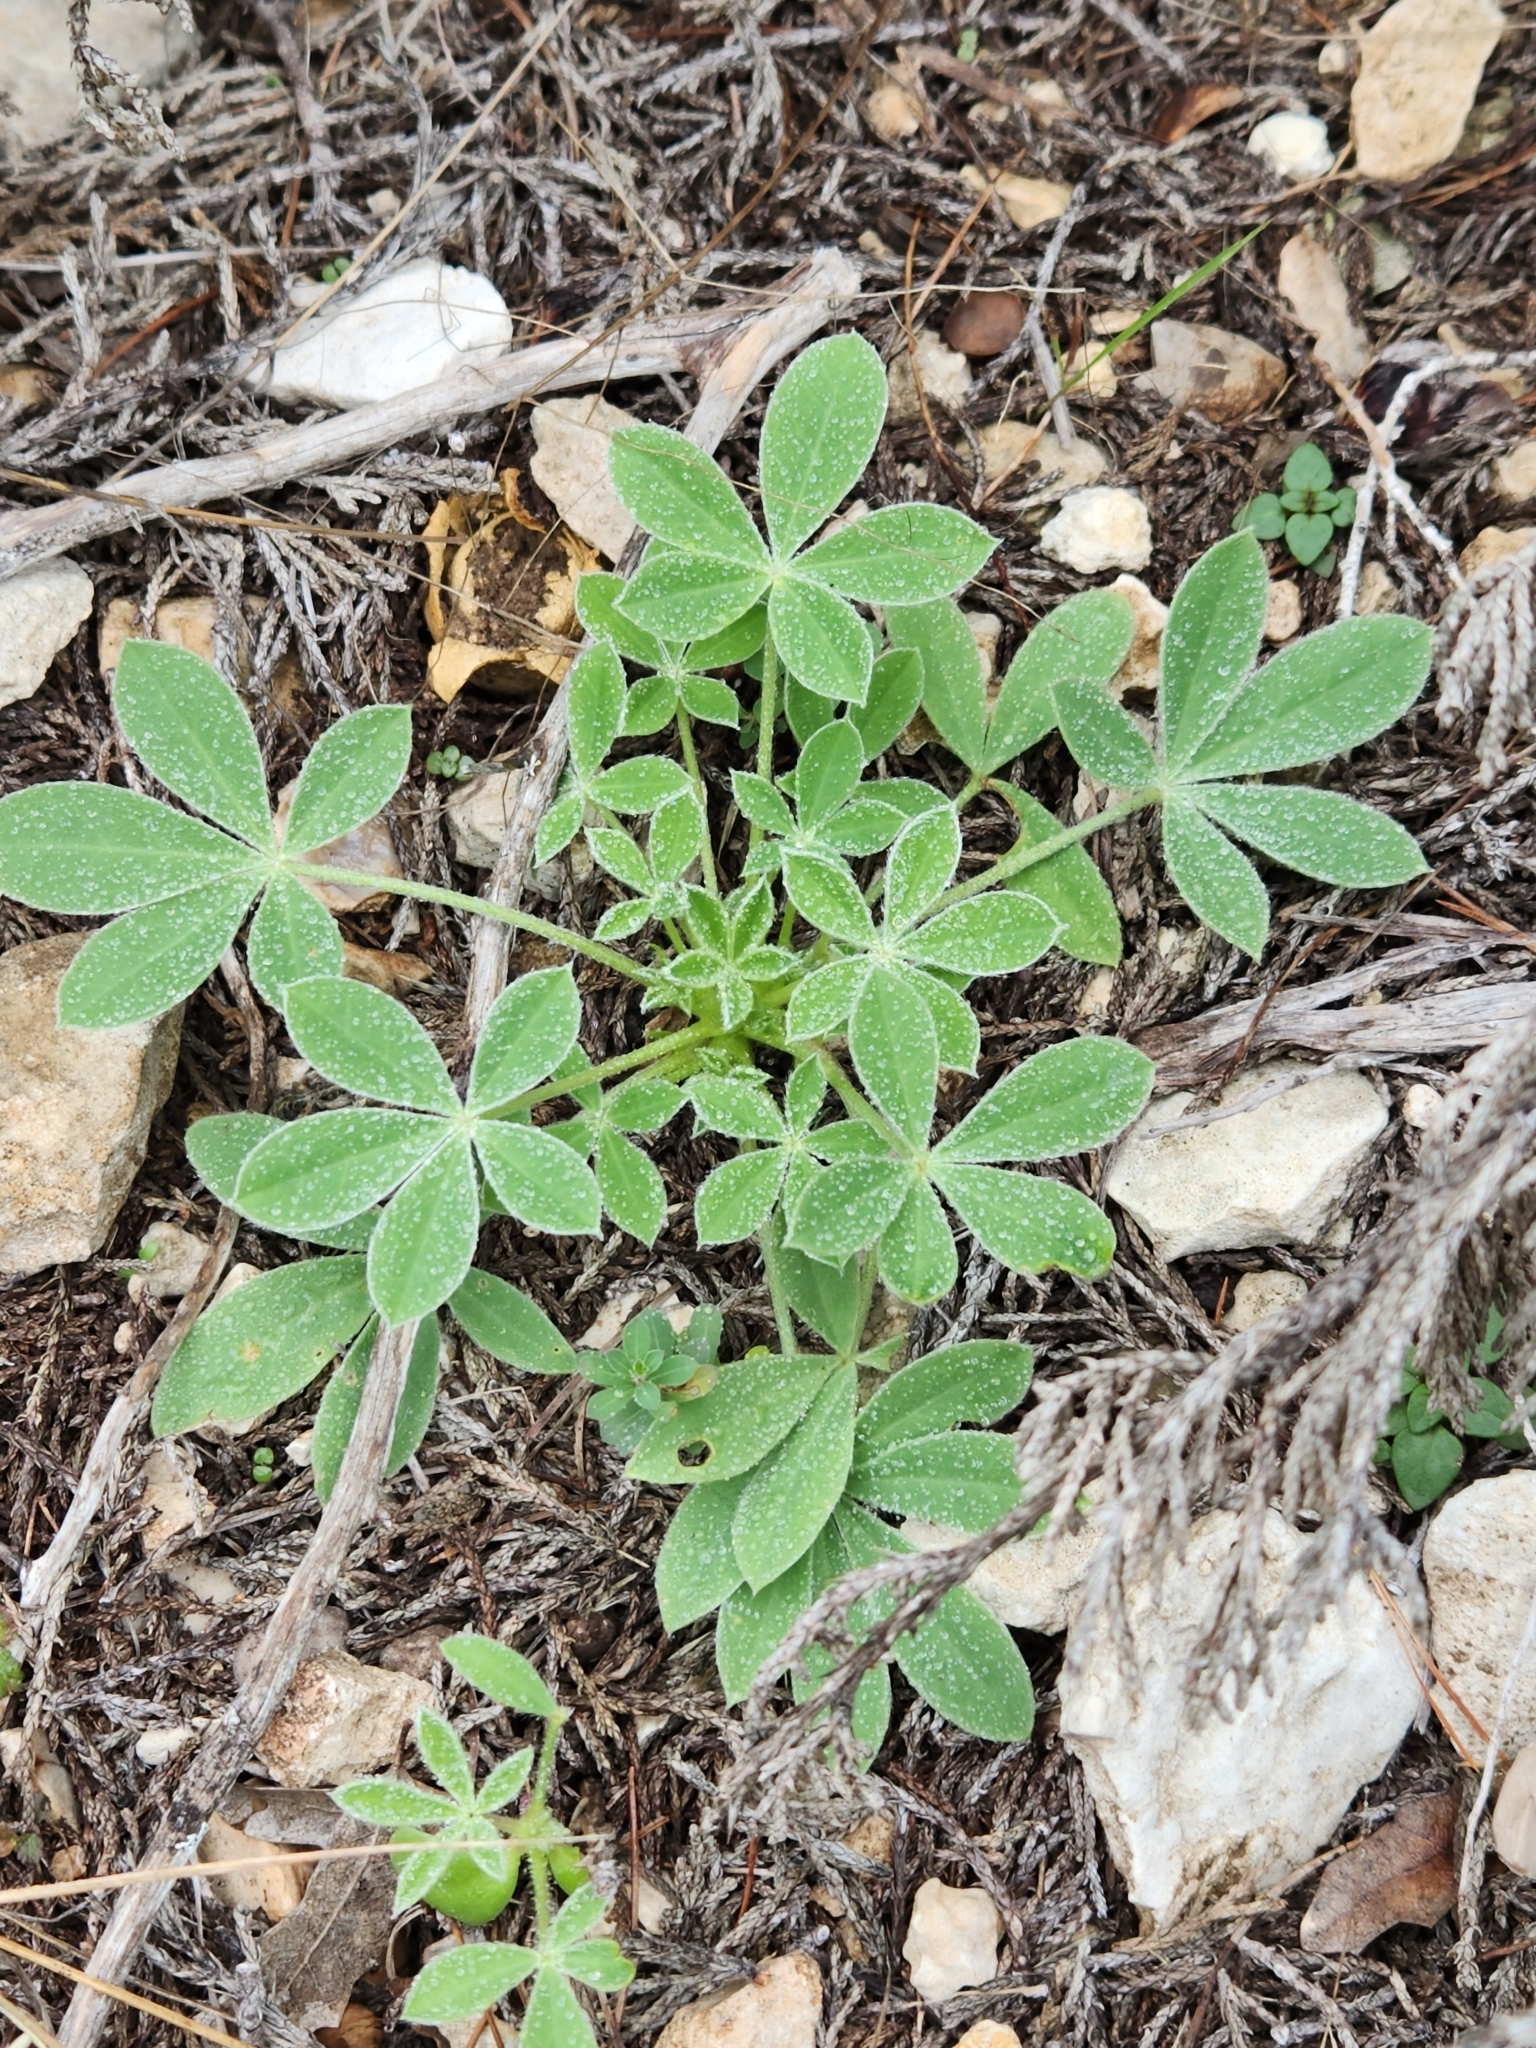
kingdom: Plantae
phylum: Tracheophyta
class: Magnoliopsida
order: Fabales
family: Fabaceae
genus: Lupinus
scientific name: Lupinus texensis
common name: Texas bluebonnet
